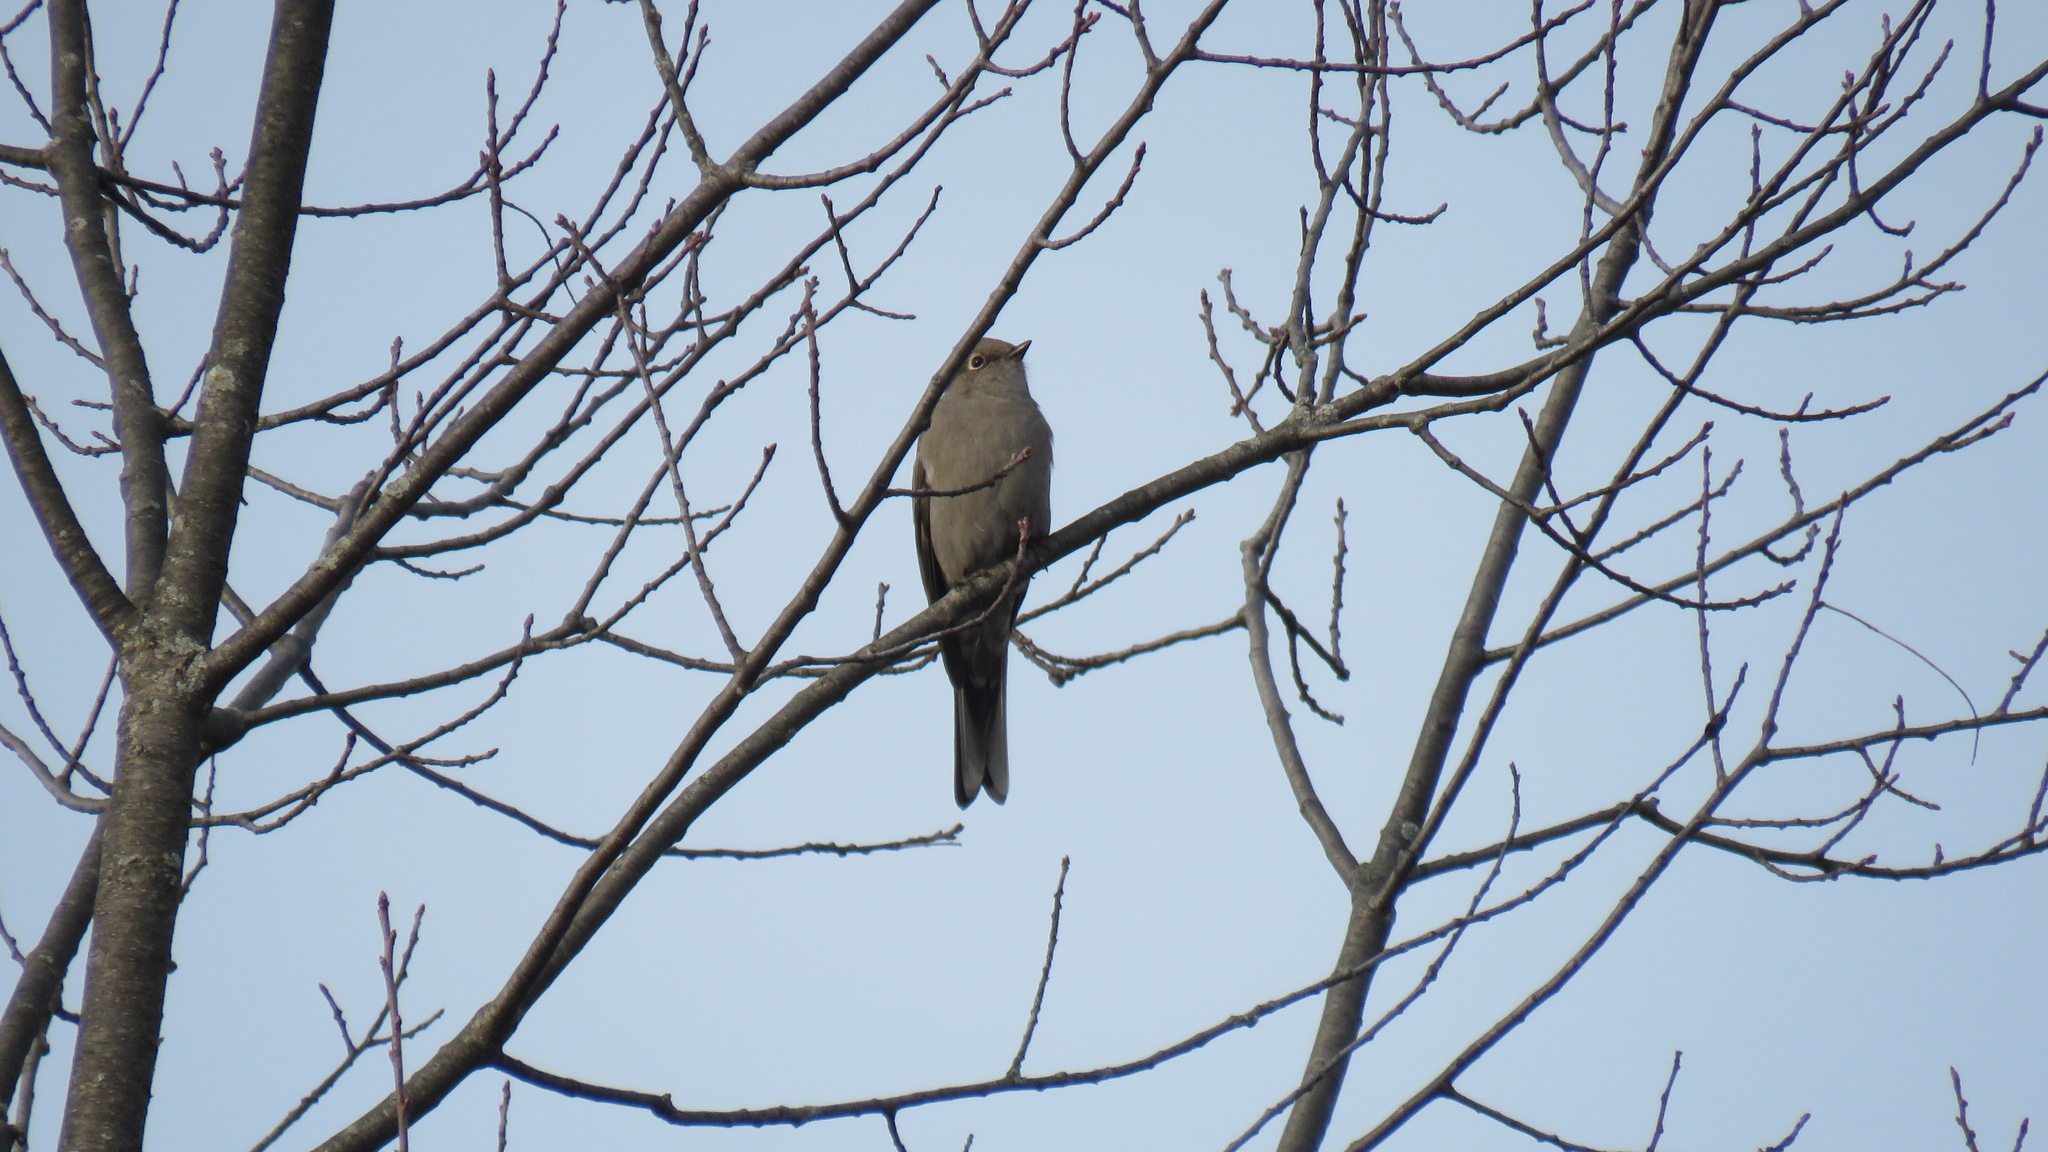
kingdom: Animalia
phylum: Chordata
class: Aves
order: Passeriformes
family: Turdidae
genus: Myadestes
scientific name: Myadestes townsendi
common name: Townsend's solitaire
